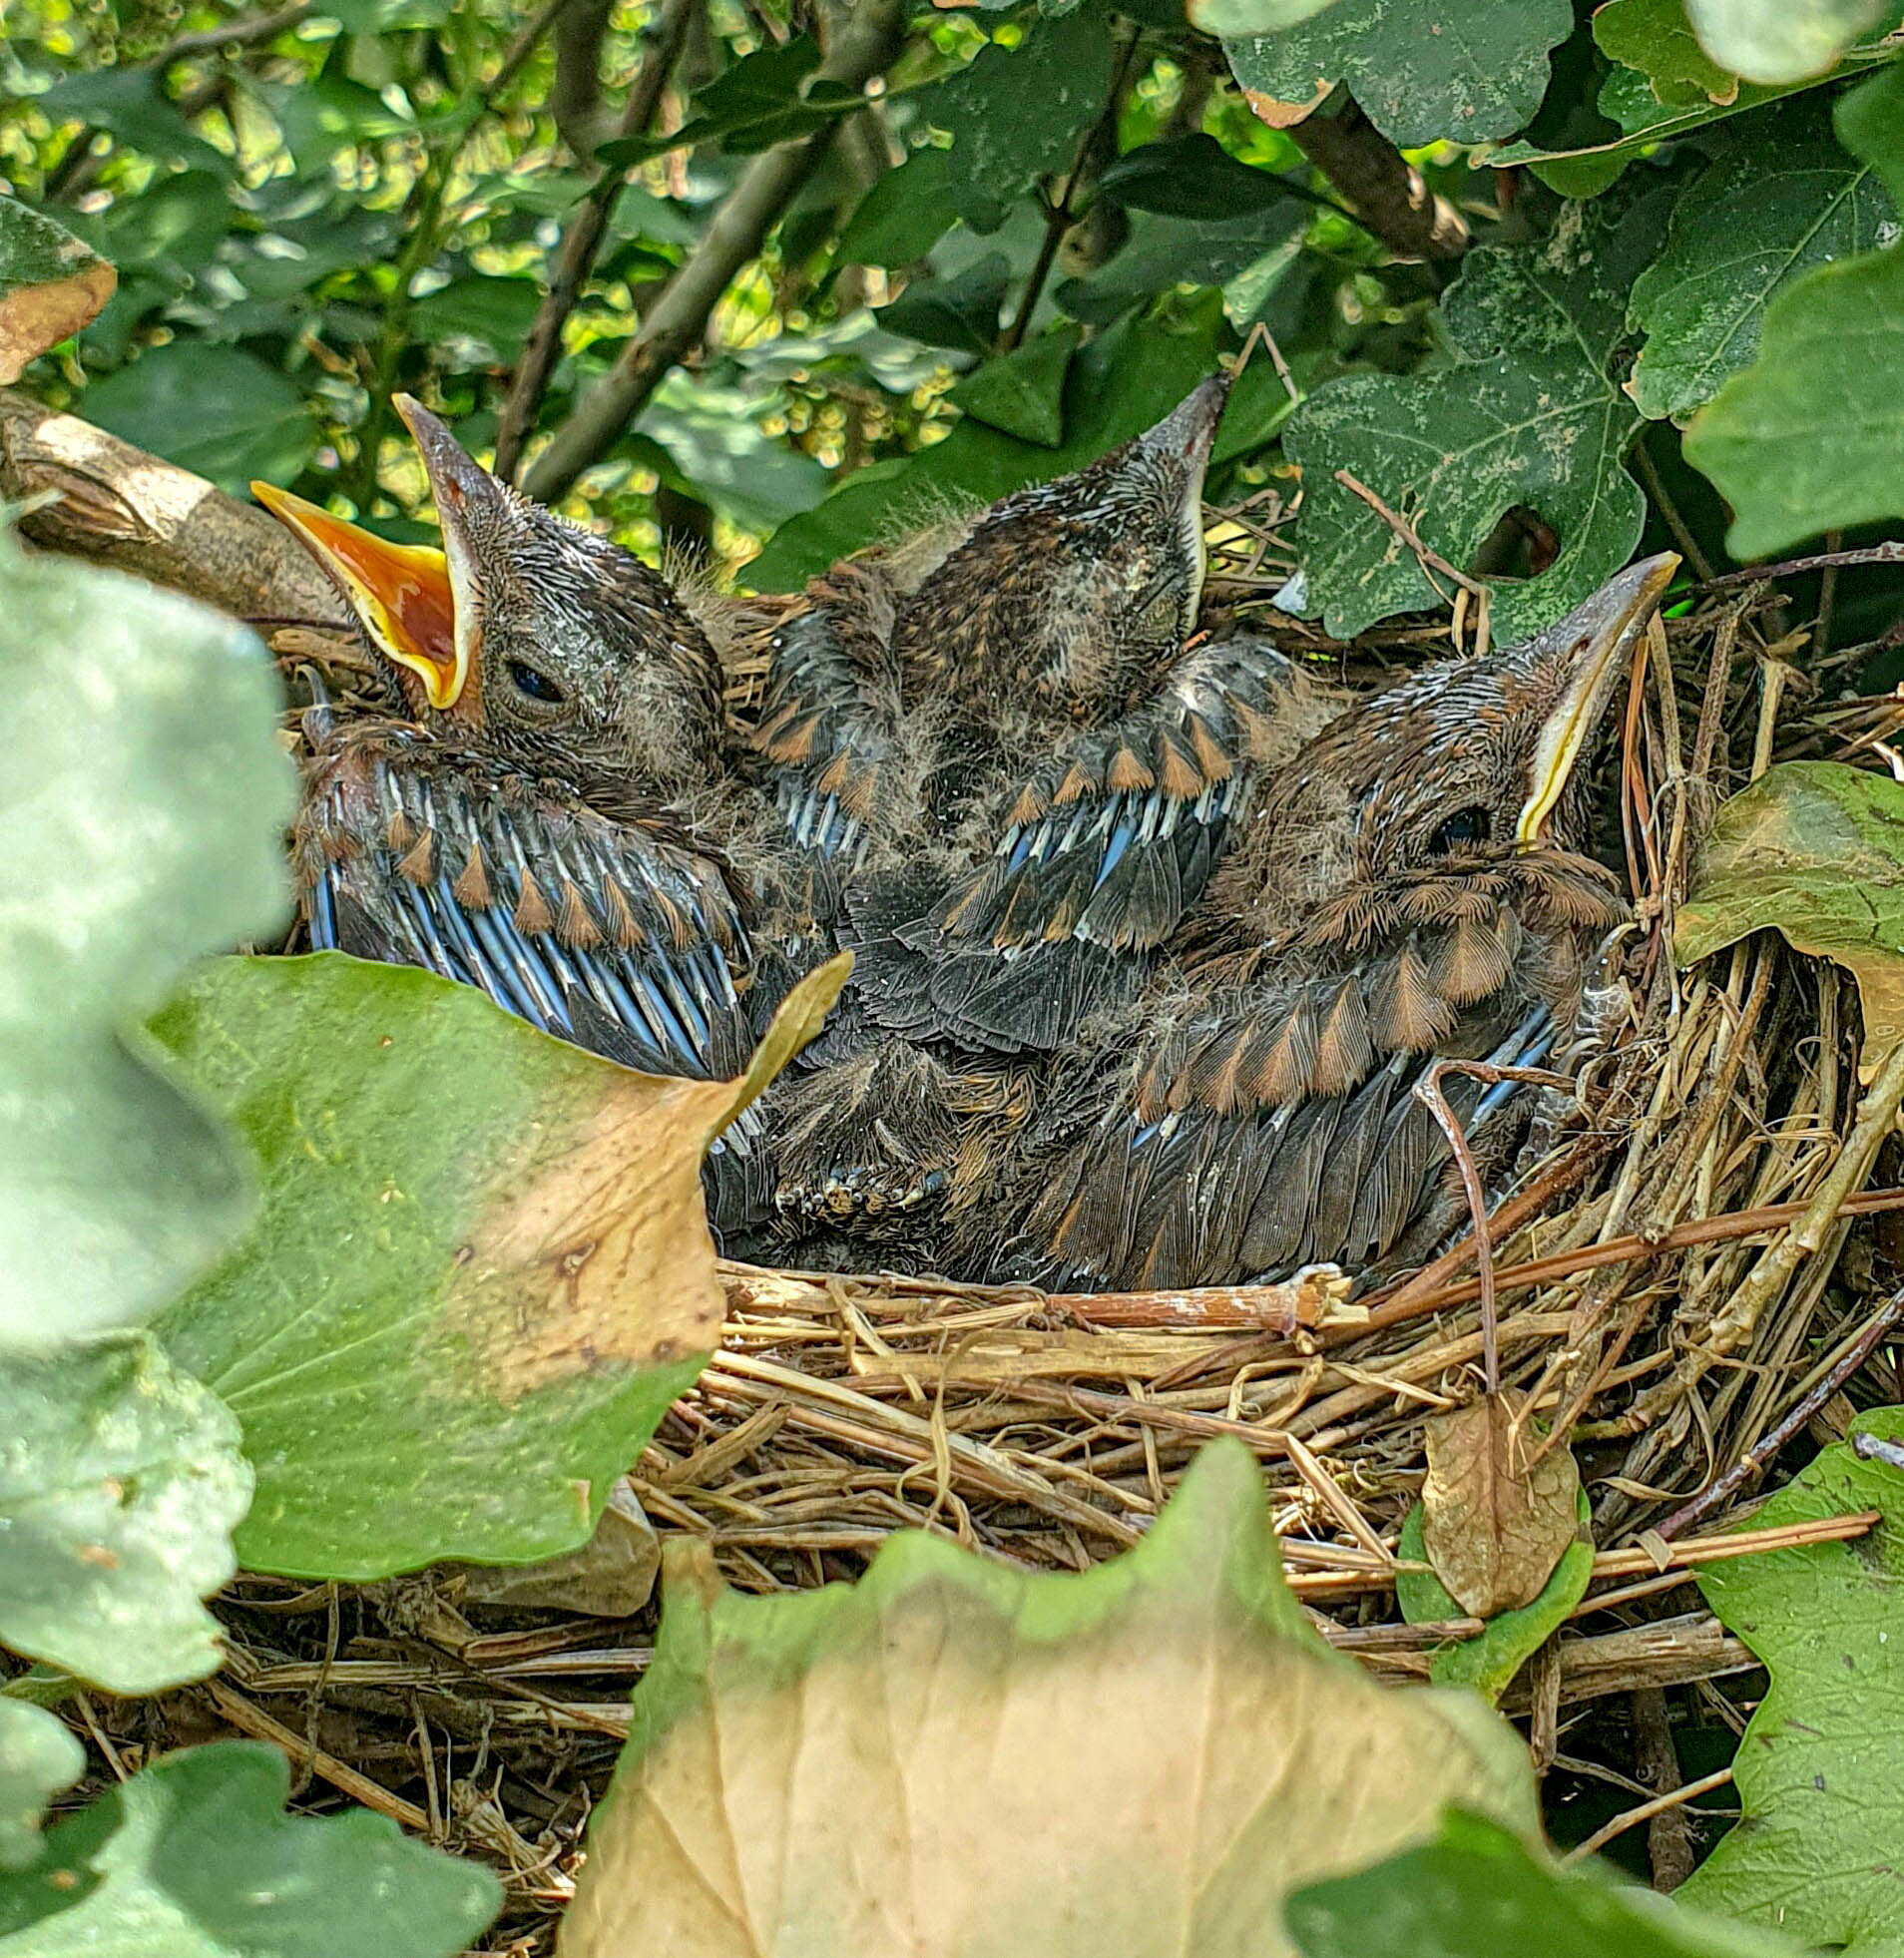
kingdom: Animalia
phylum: Chordata
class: Aves
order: Passeriformes
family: Turdidae
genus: Turdus
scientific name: Turdus merula
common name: Common blackbird
